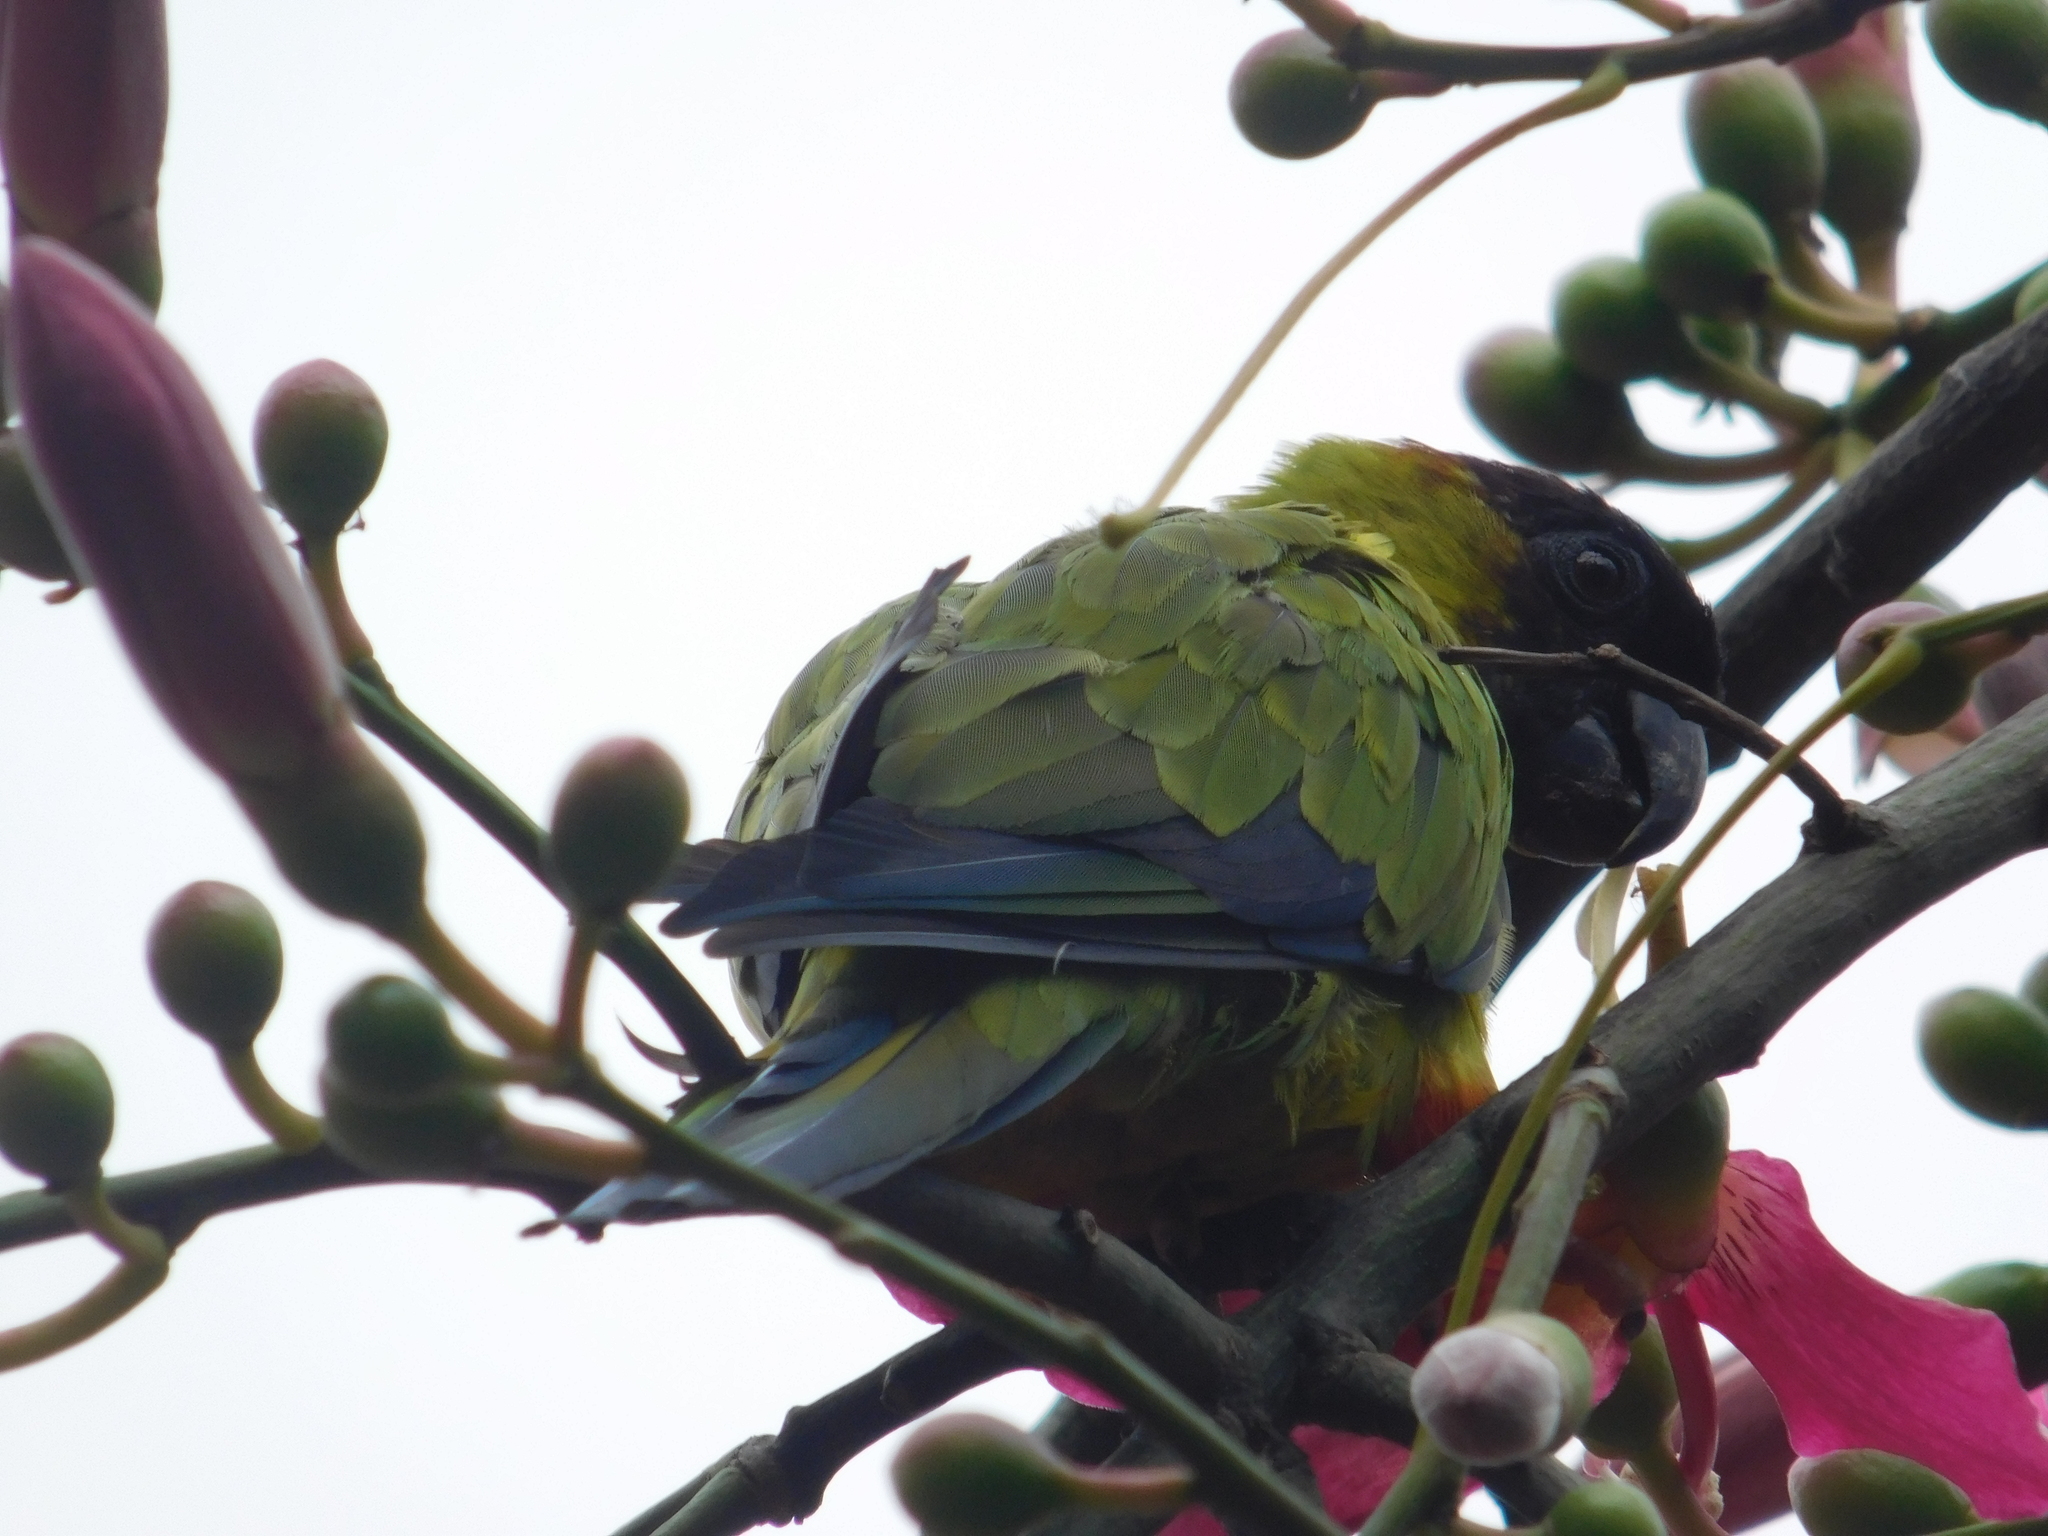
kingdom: Animalia
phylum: Chordata
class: Aves
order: Psittaciformes
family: Psittacidae
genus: Nandayus
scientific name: Nandayus nenday
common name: Nanday parakeet
